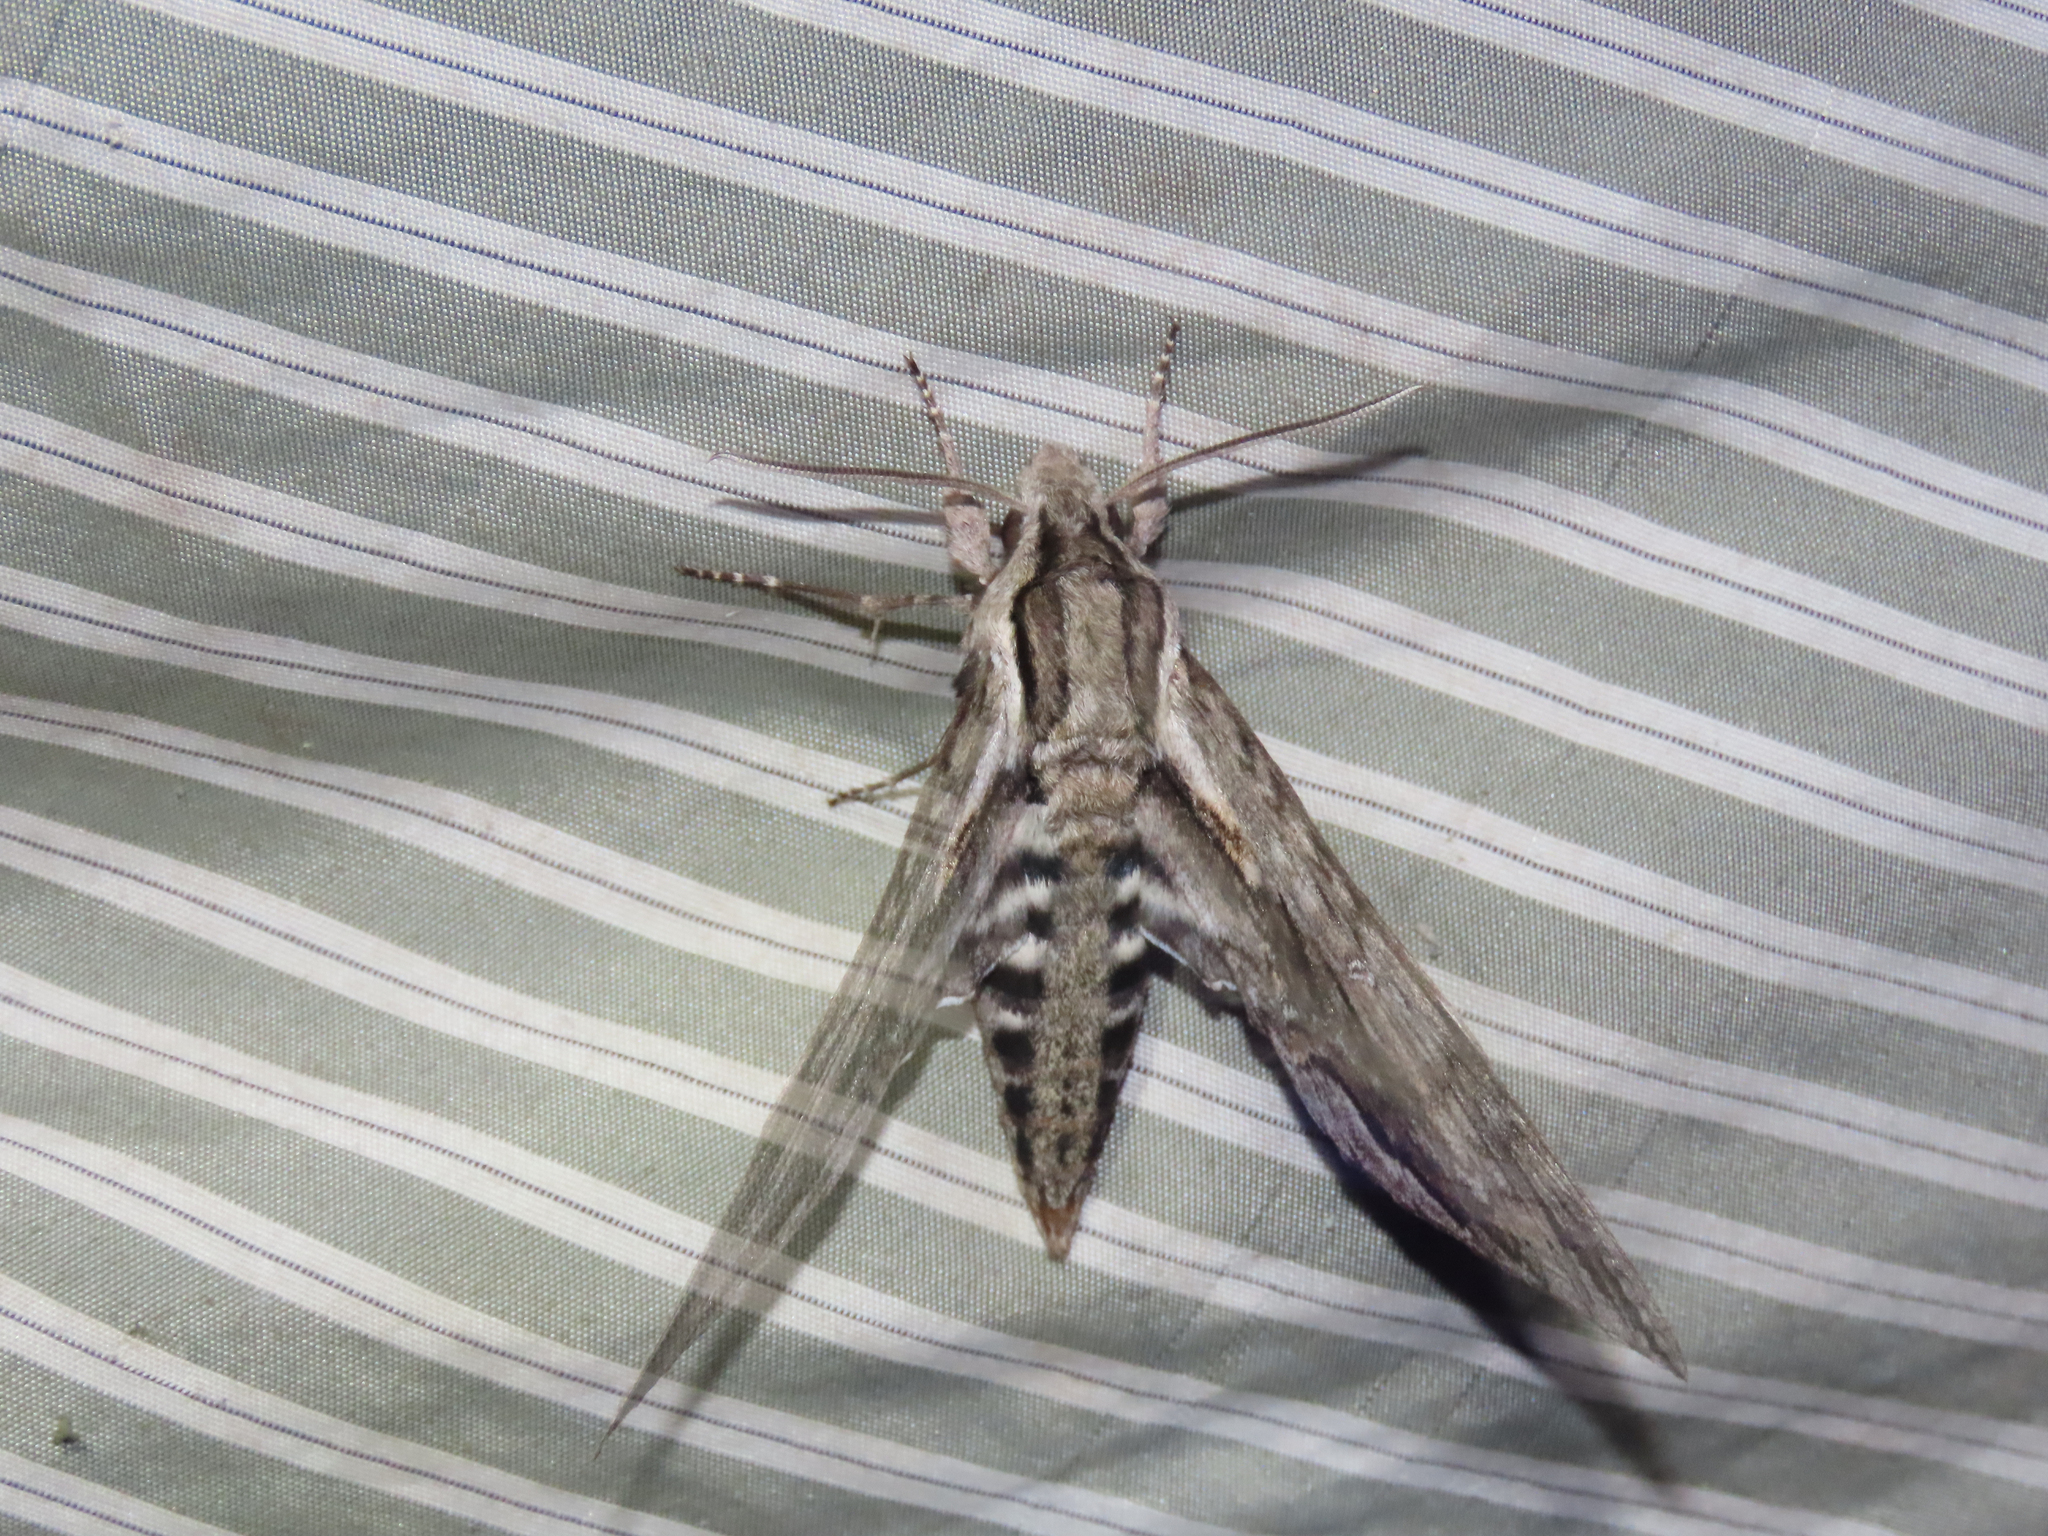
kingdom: Animalia
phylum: Arthropoda
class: Insecta
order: Lepidoptera
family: Sphingidae
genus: Lintneria
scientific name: Lintneria istar
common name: Istar sphinx
